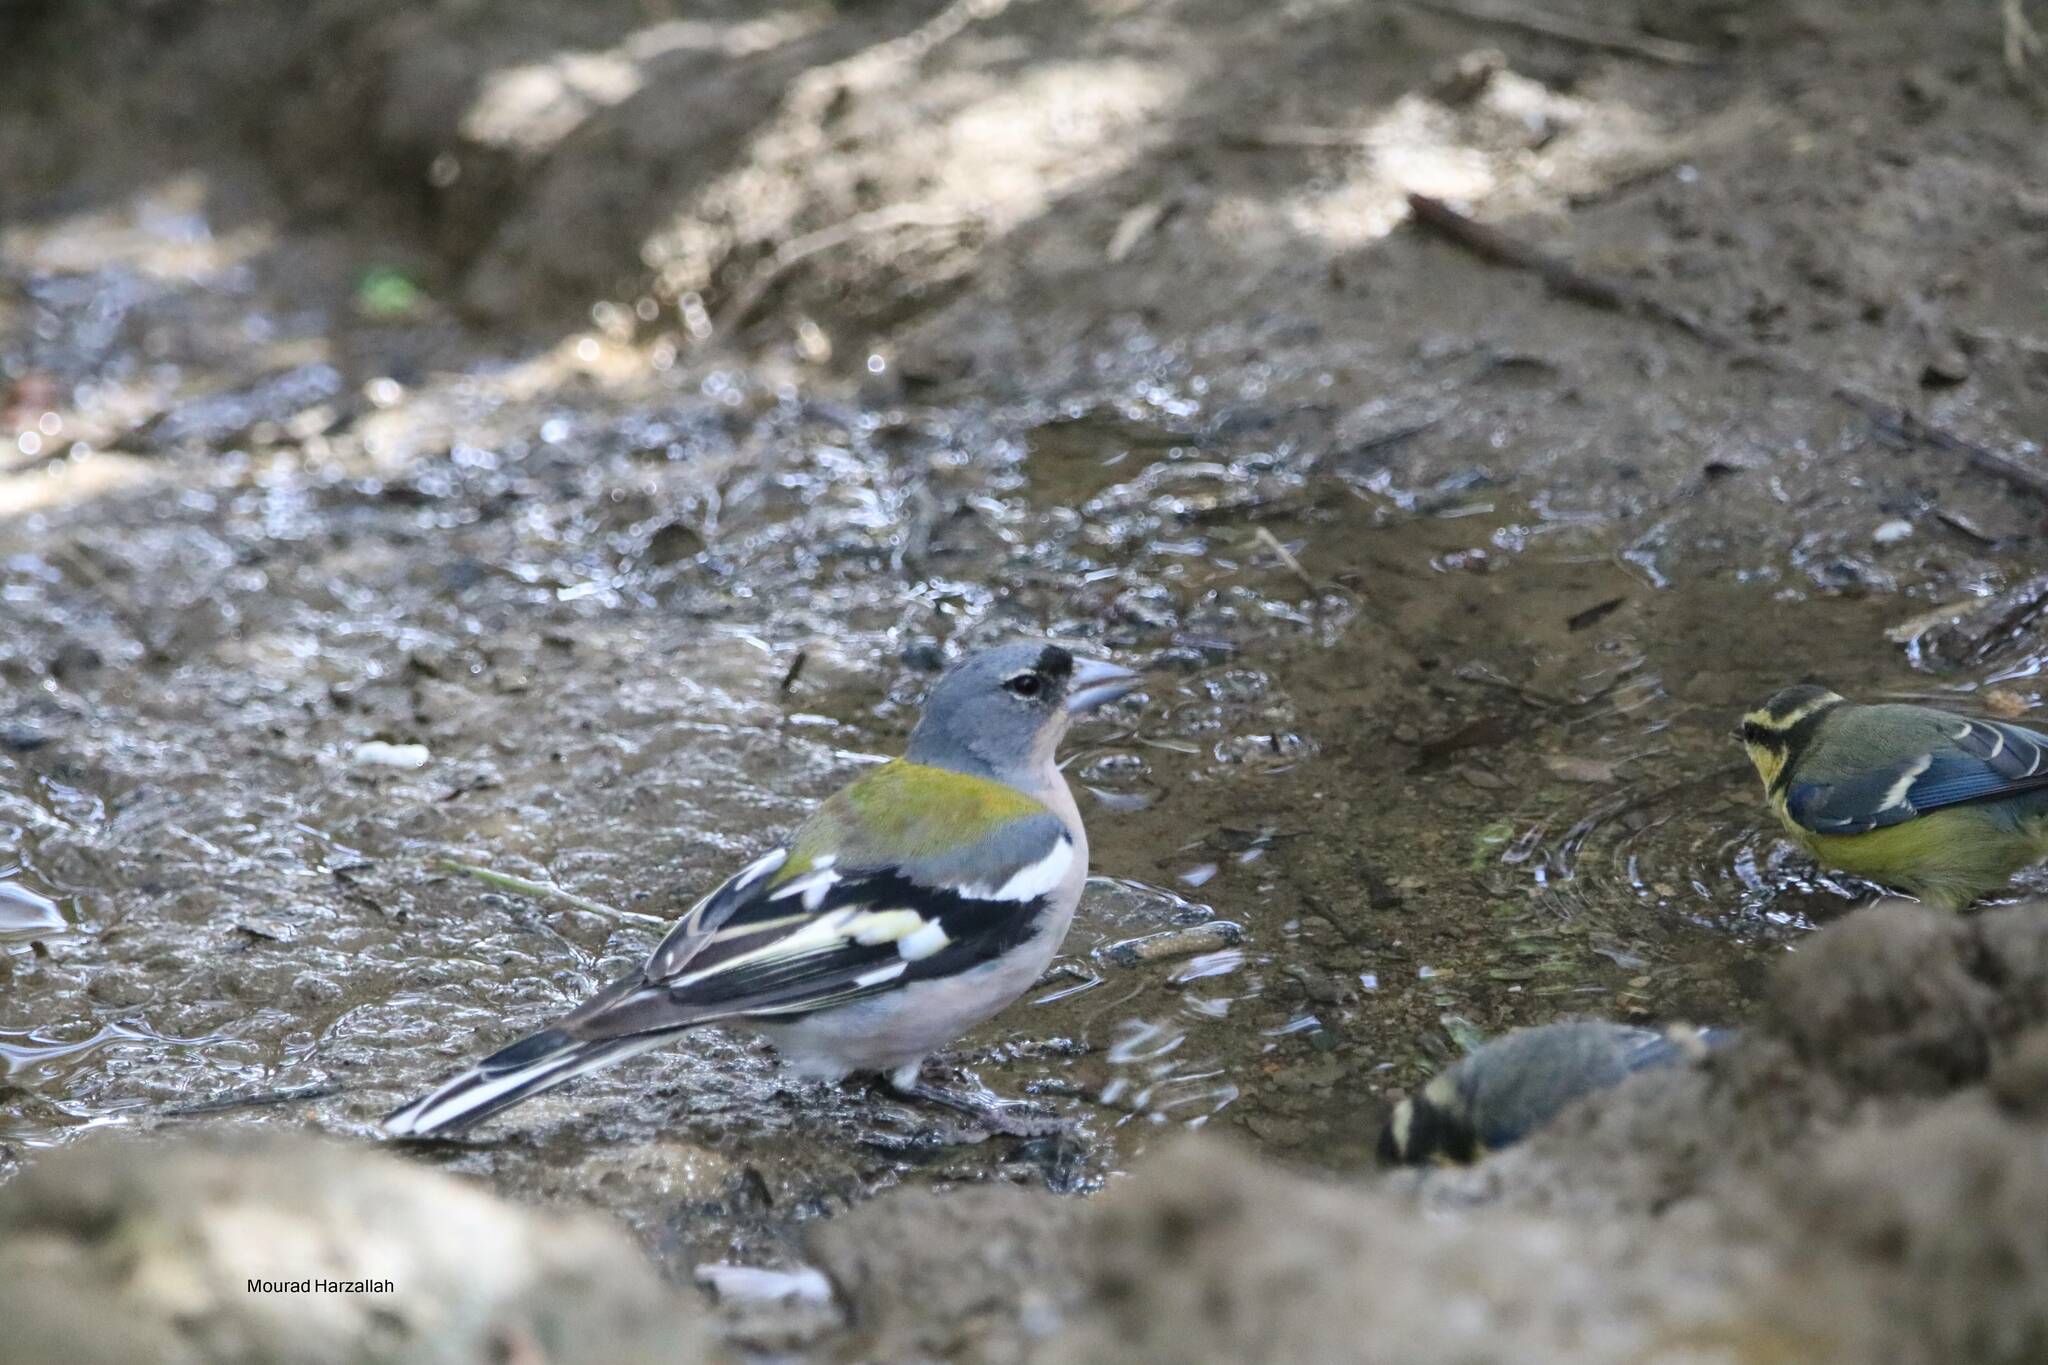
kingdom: Animalia
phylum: Chordata
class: Aves
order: Passeriformes
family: Fringillidae
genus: Fringilla
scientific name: Fringilla spodiogenys
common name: African chaffinch
